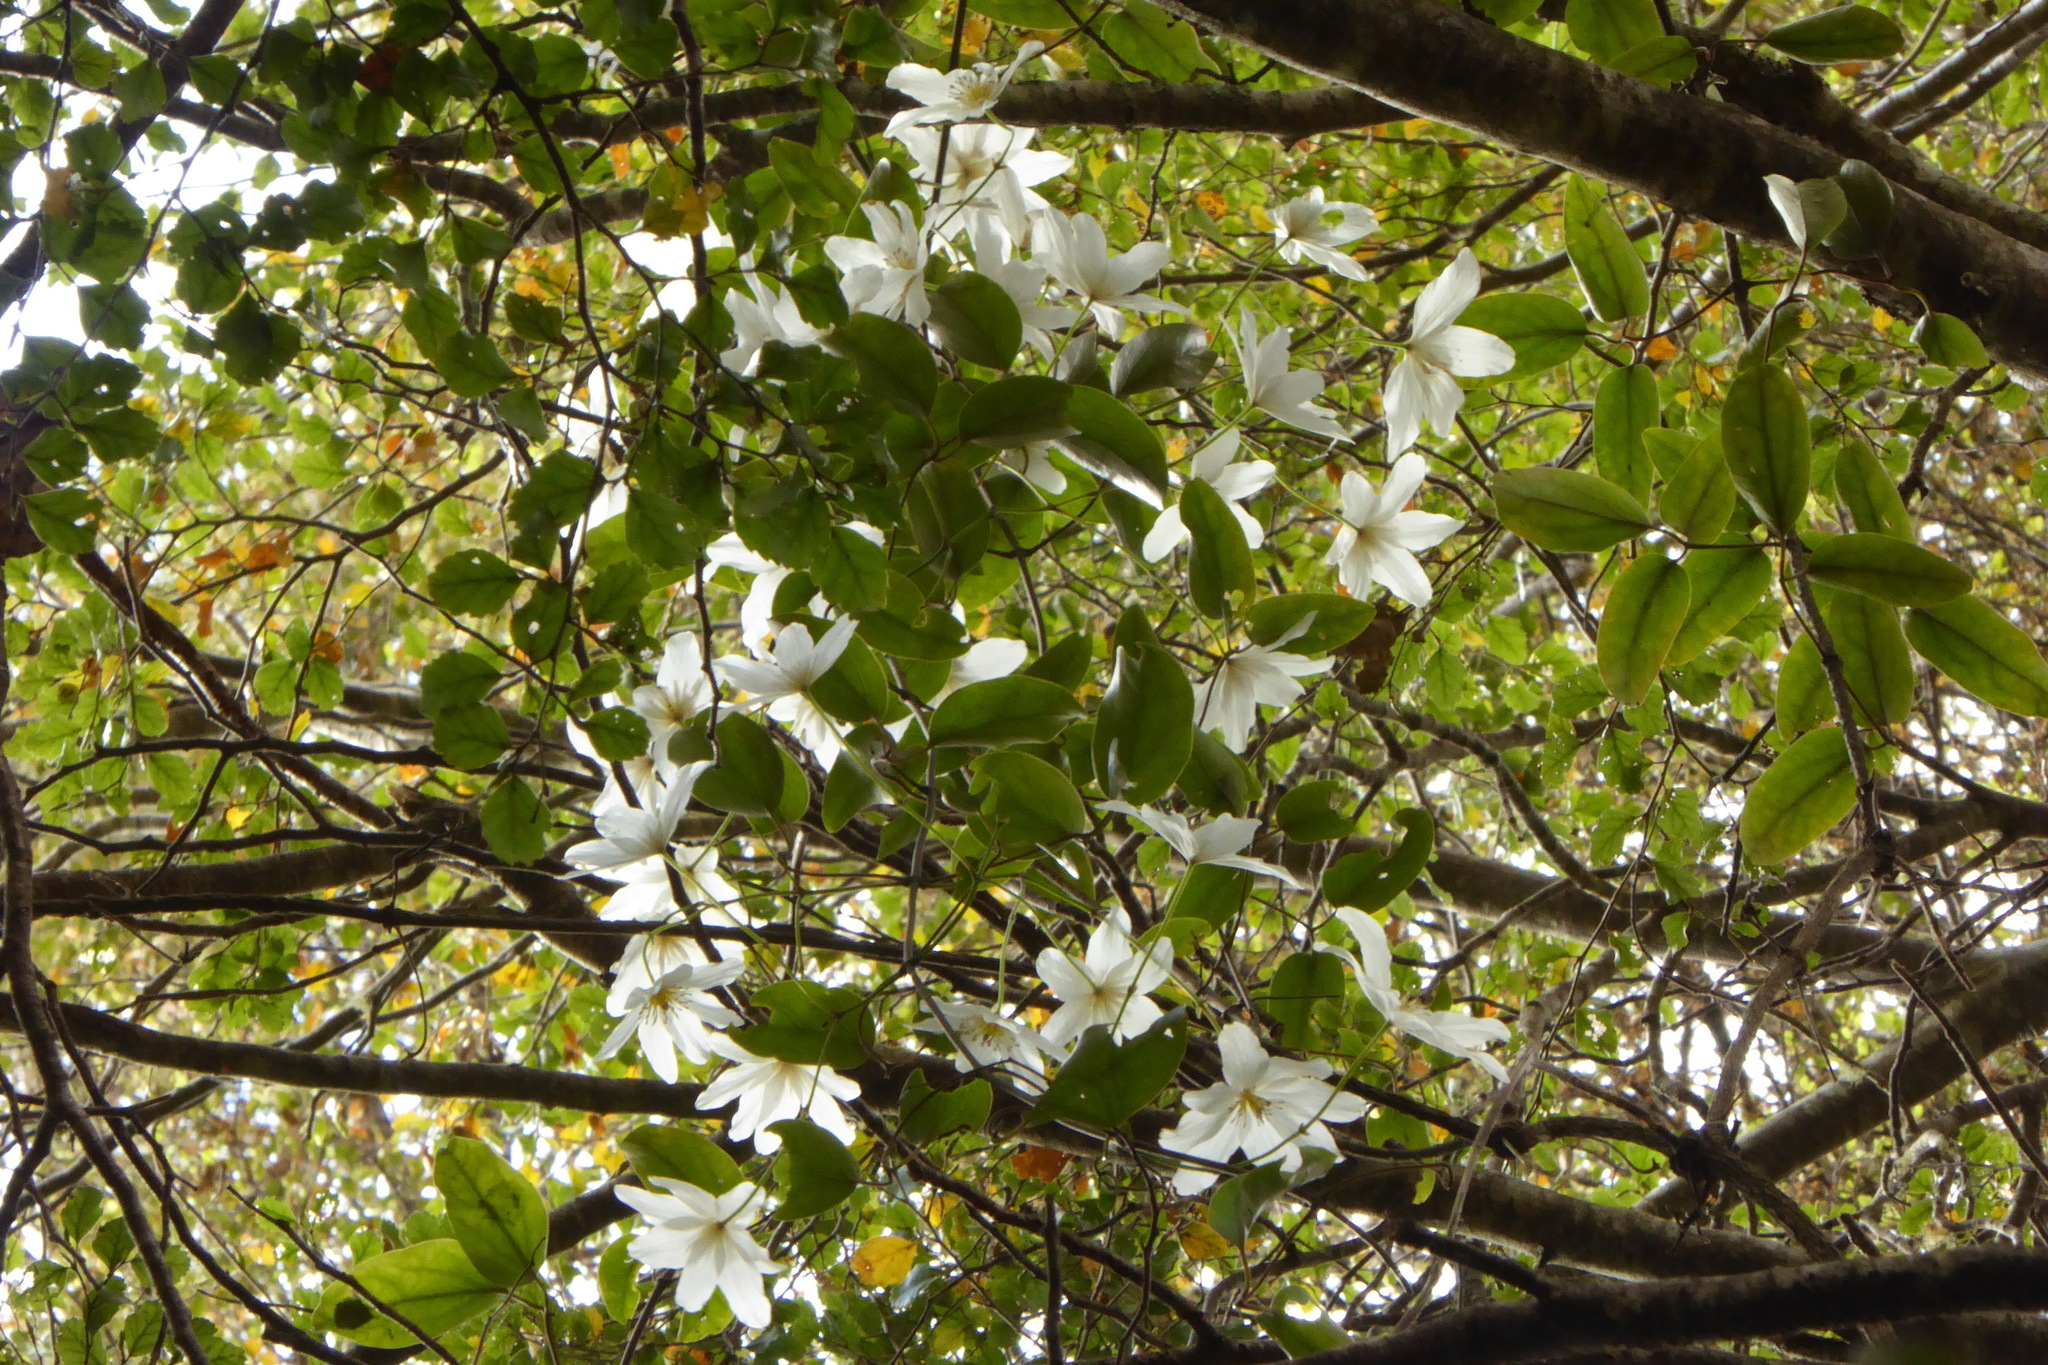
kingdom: Plantae
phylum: Tracheophyta
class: Magnoliopsida
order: Ranunculales
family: Ranunculaceae
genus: Clematis
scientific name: Clematis paniculata
